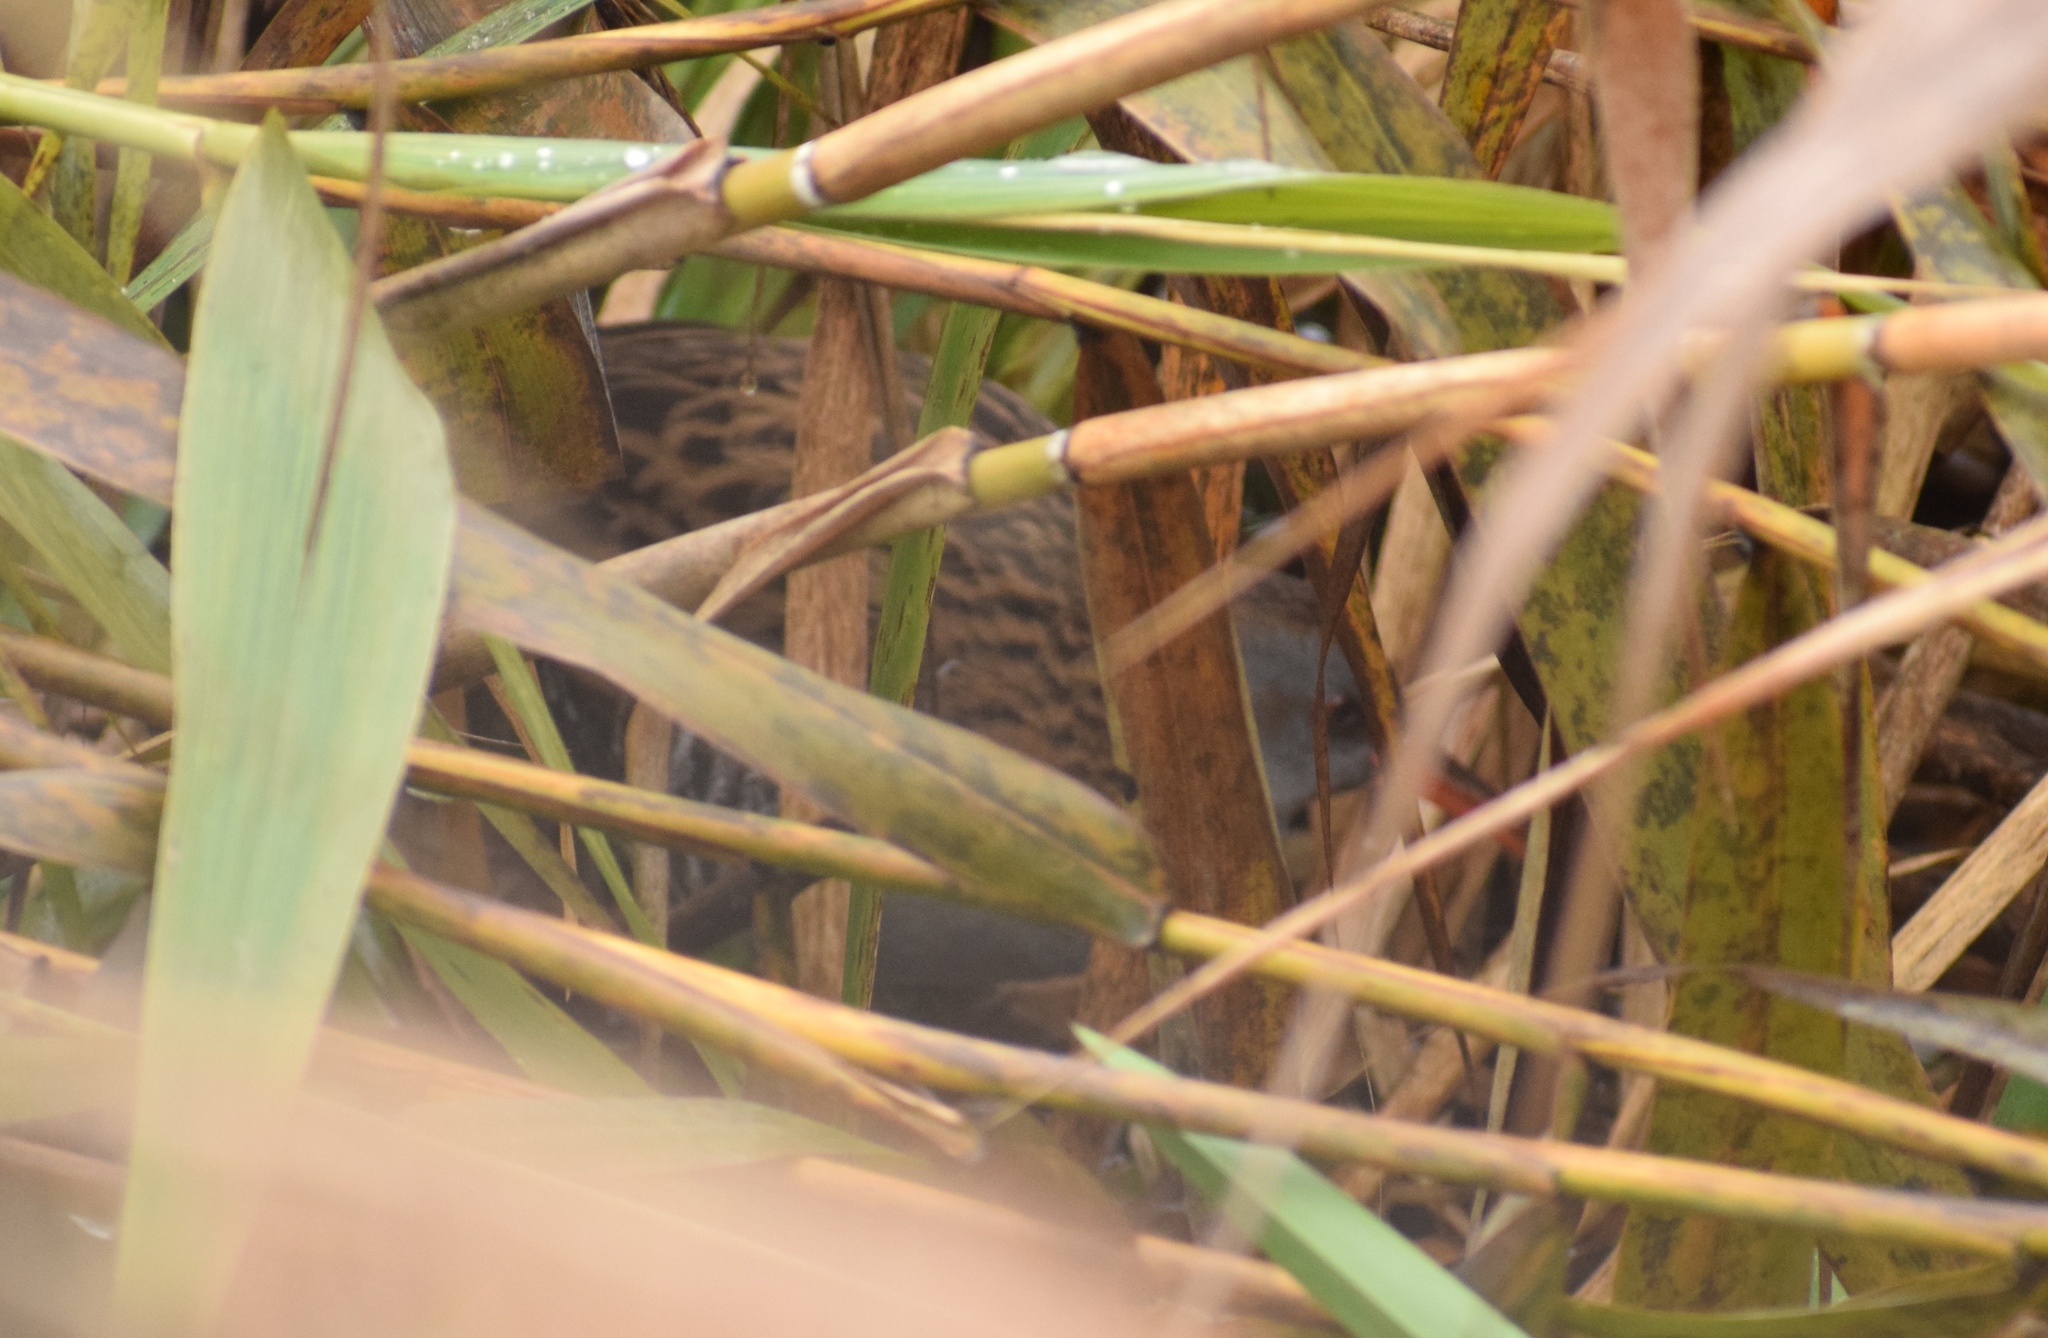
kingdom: Animalia
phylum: Chordata
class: Aves
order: Gruiformes
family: Rallidae
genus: Rallus
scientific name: Rallus aquaticus
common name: Water rail
